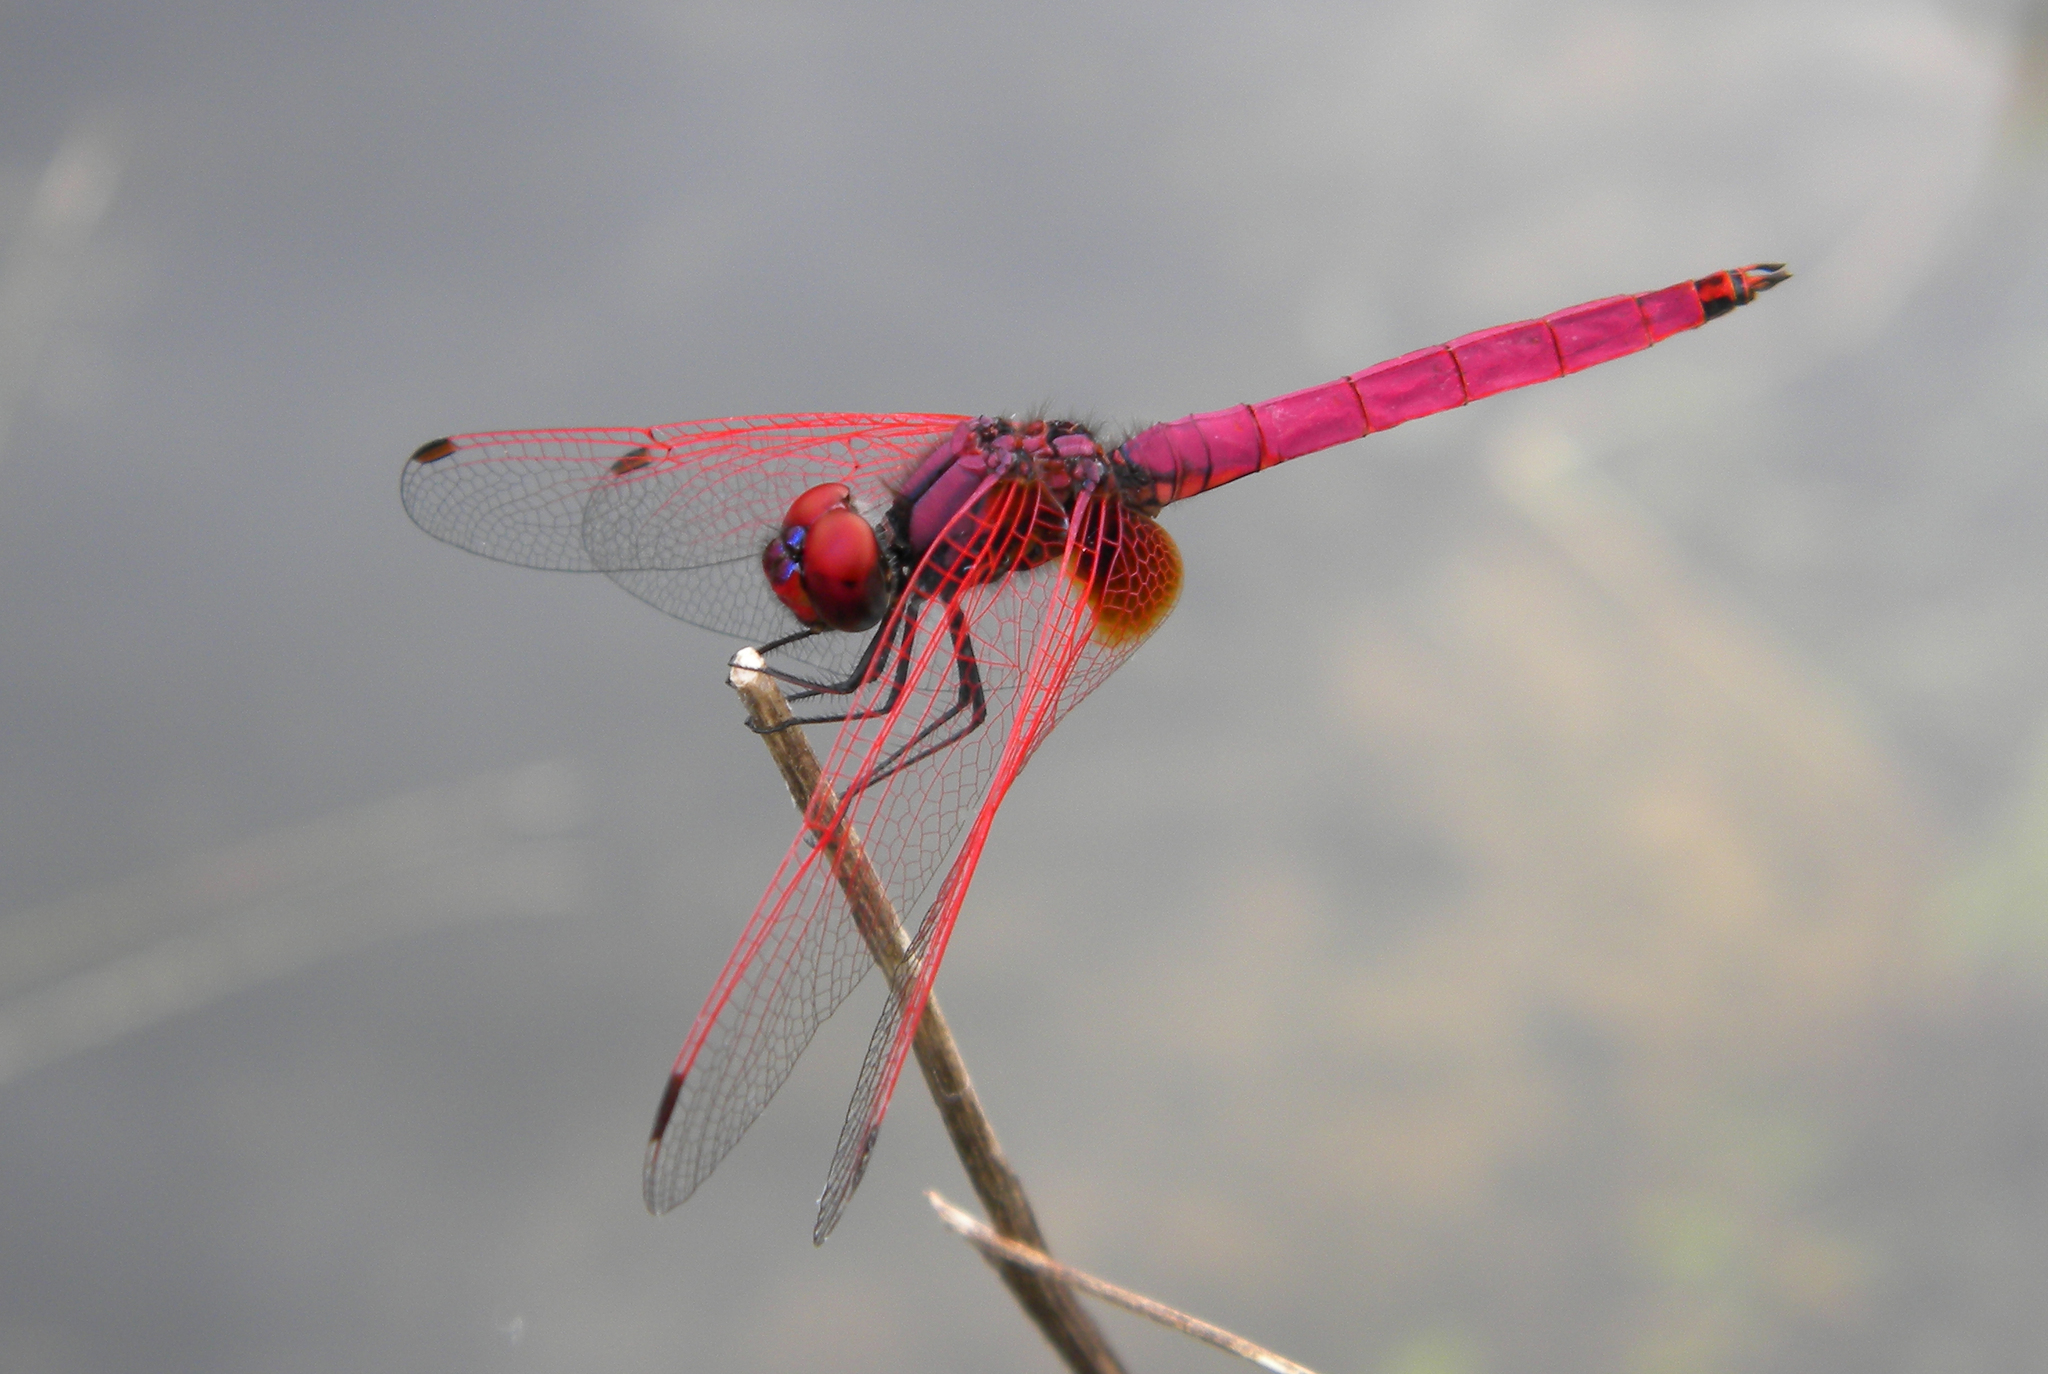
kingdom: Animalia
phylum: Arthropoda
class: Insecta
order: Odonata
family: Libellulidae
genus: Trithemis
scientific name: Trithemis aurora
